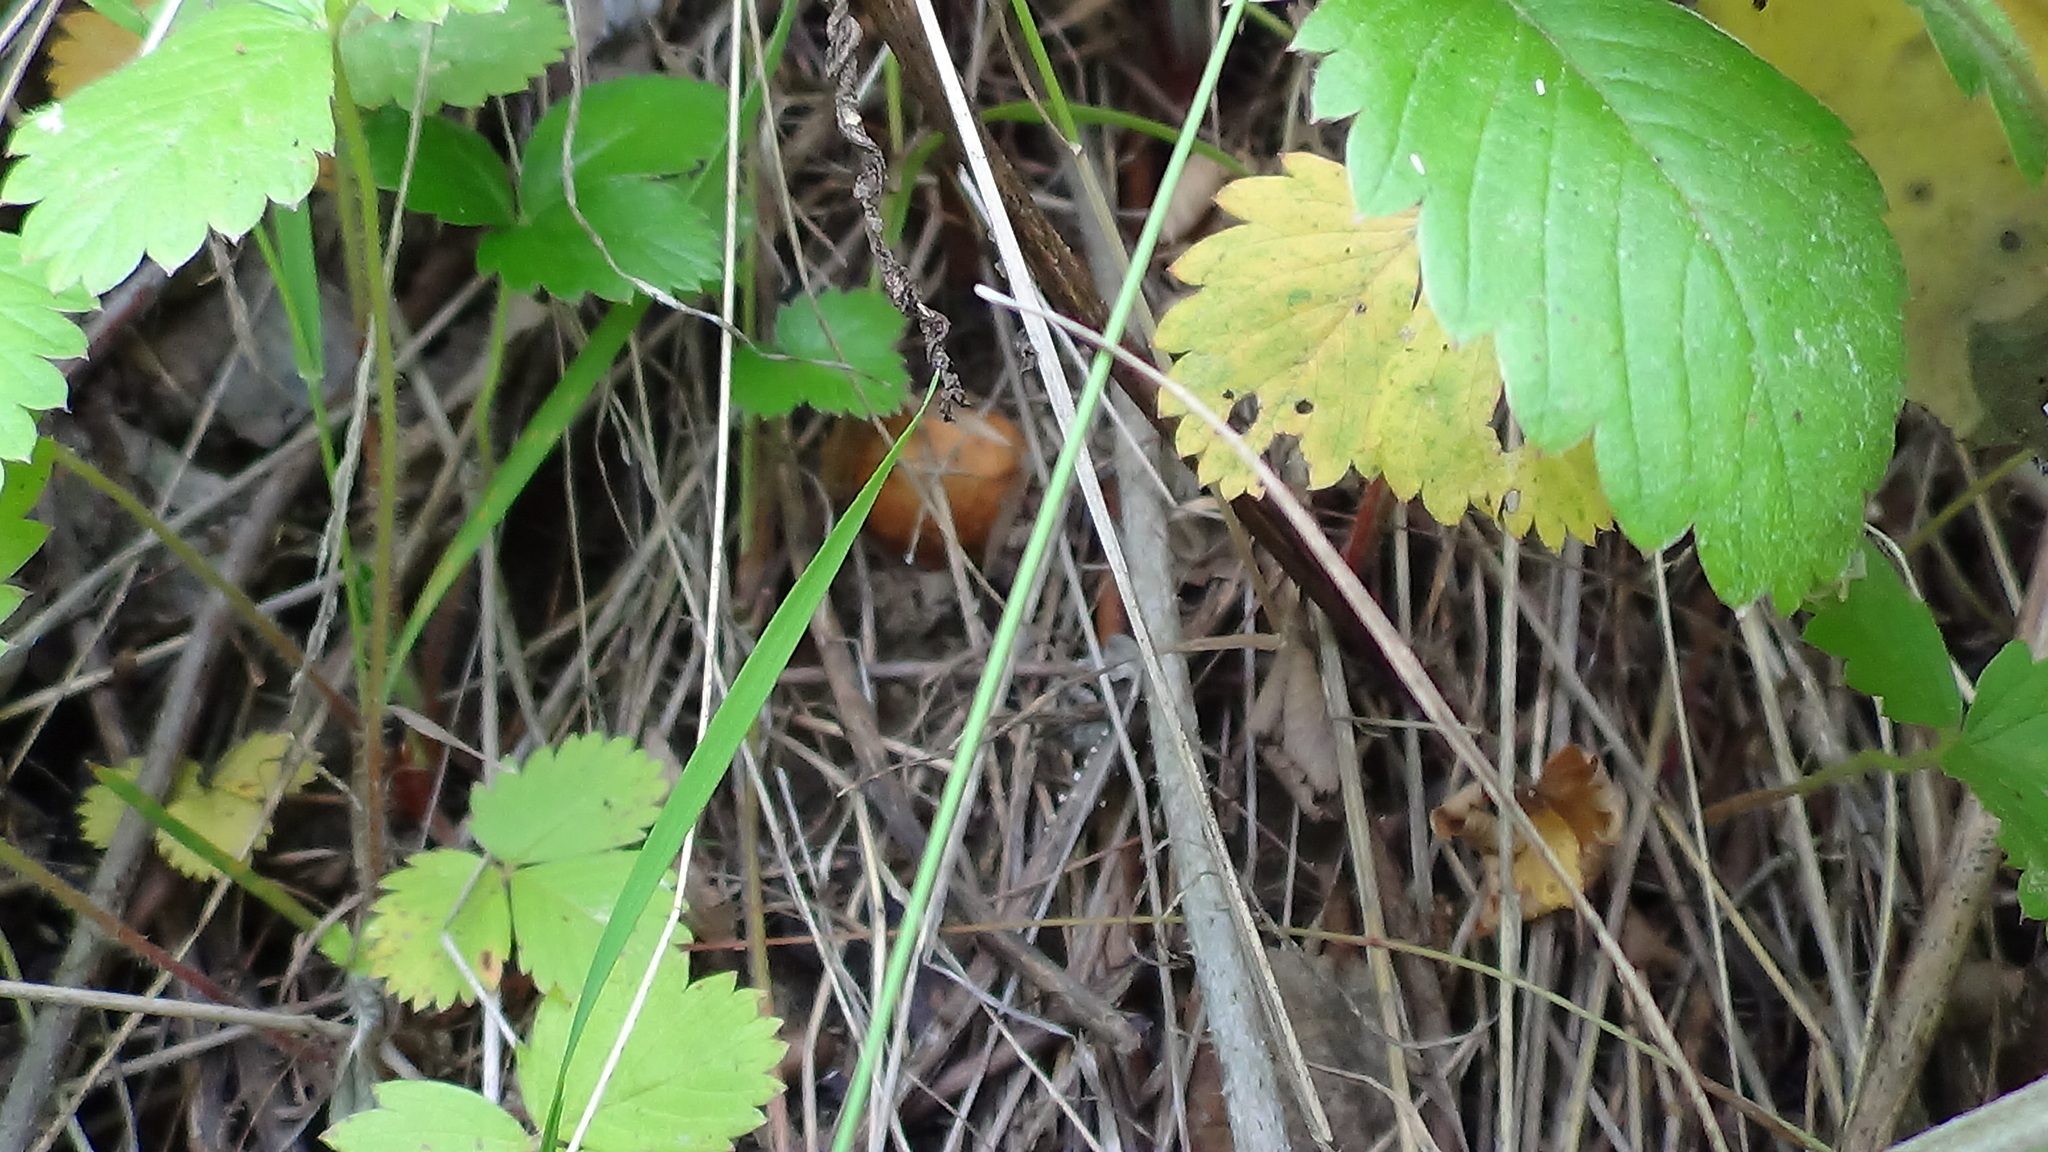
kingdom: Plantae
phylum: Tracheophyta
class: Magnoliopsida
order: Rosales
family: Rosaceae
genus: Fragaria
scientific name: Fragaria vesca
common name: Wild strawberry
